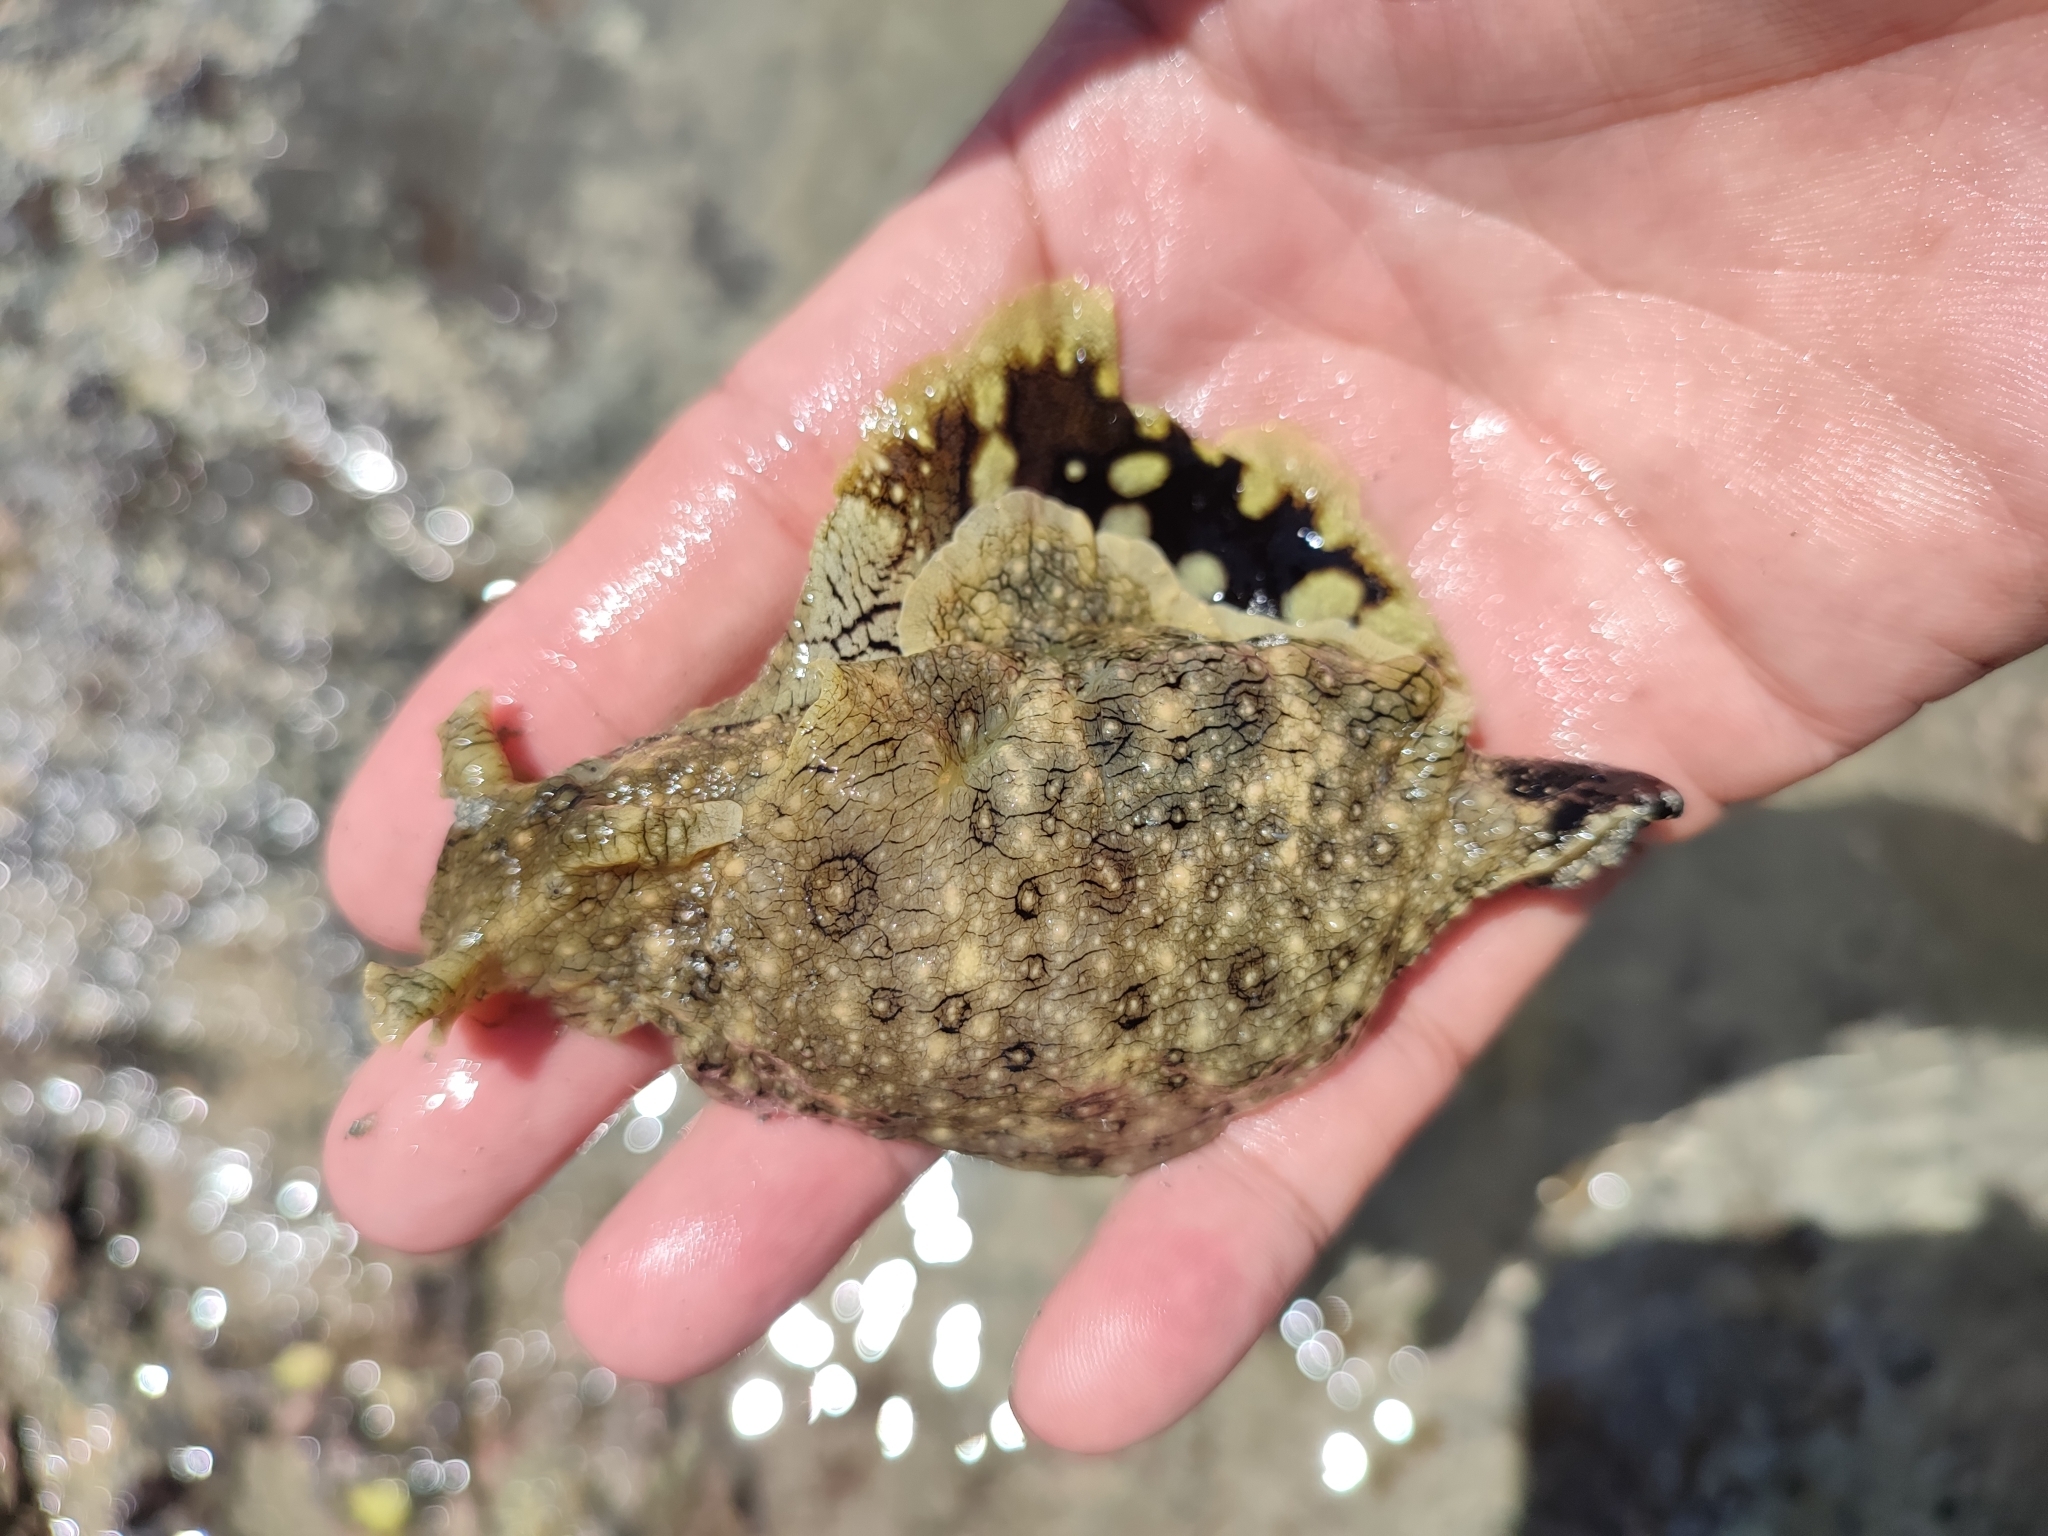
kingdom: Animalia
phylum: Mollusca
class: Gastropoda
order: Aplysiida
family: Aplysiidae
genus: Aplysia
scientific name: Aplysia argus
